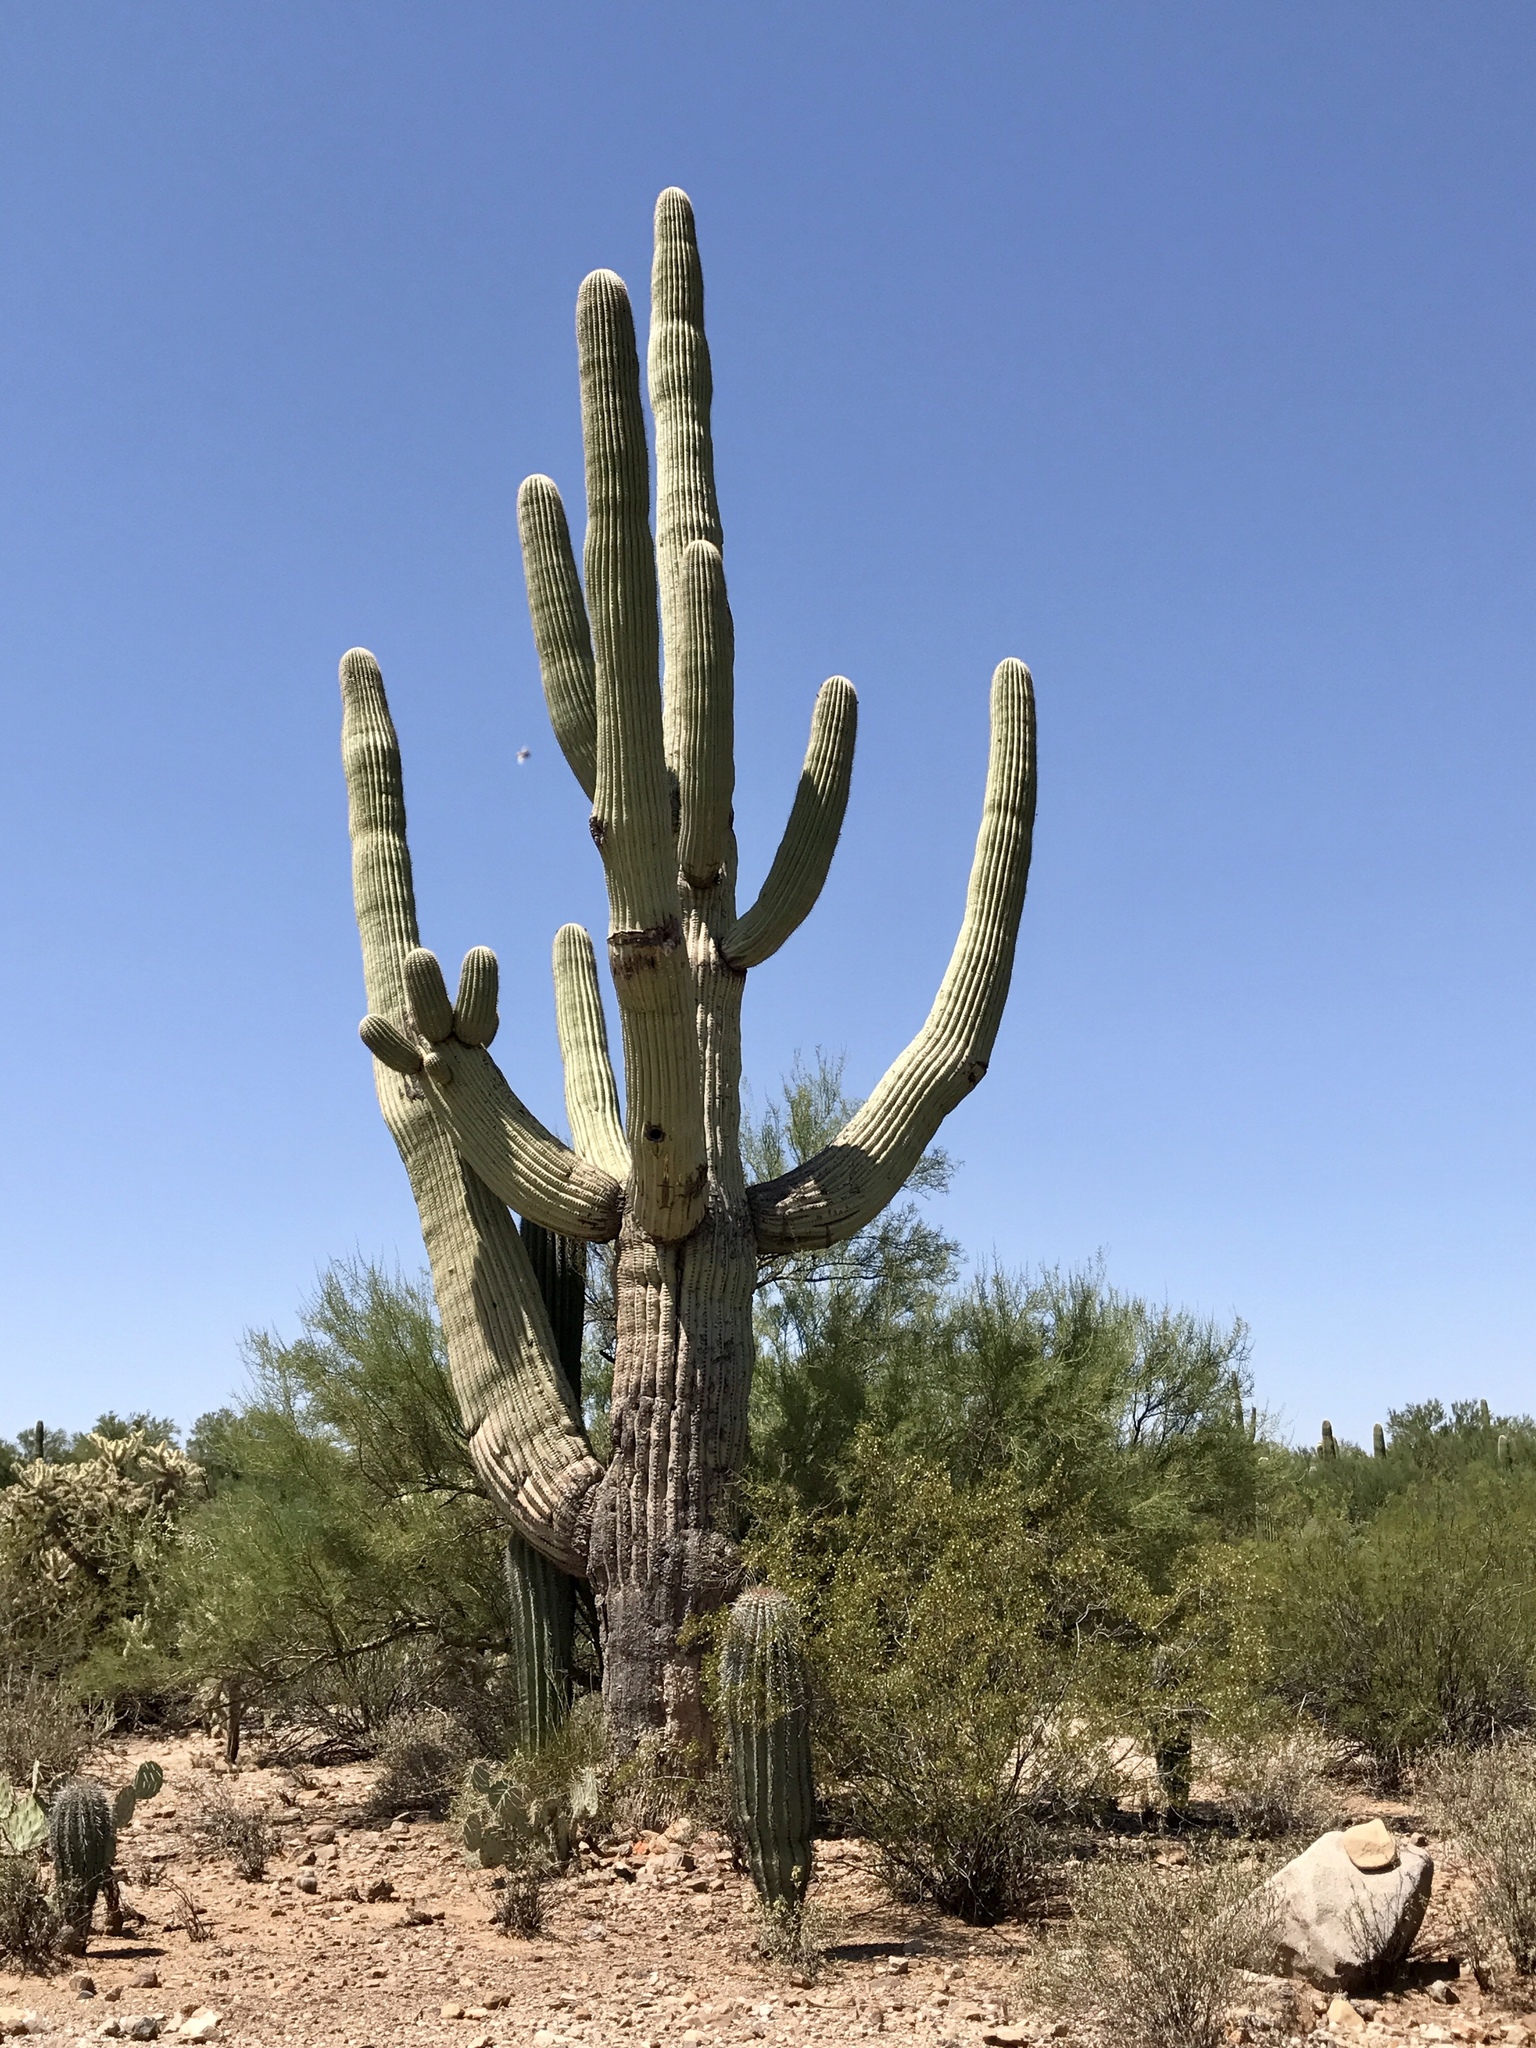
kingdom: Plantae
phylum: Tracheophyta
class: Magnoliopsida
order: Caryophyllales
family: Cactaceae
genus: Carnegiea
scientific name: Carnegiea gigantea
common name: Saguaro
